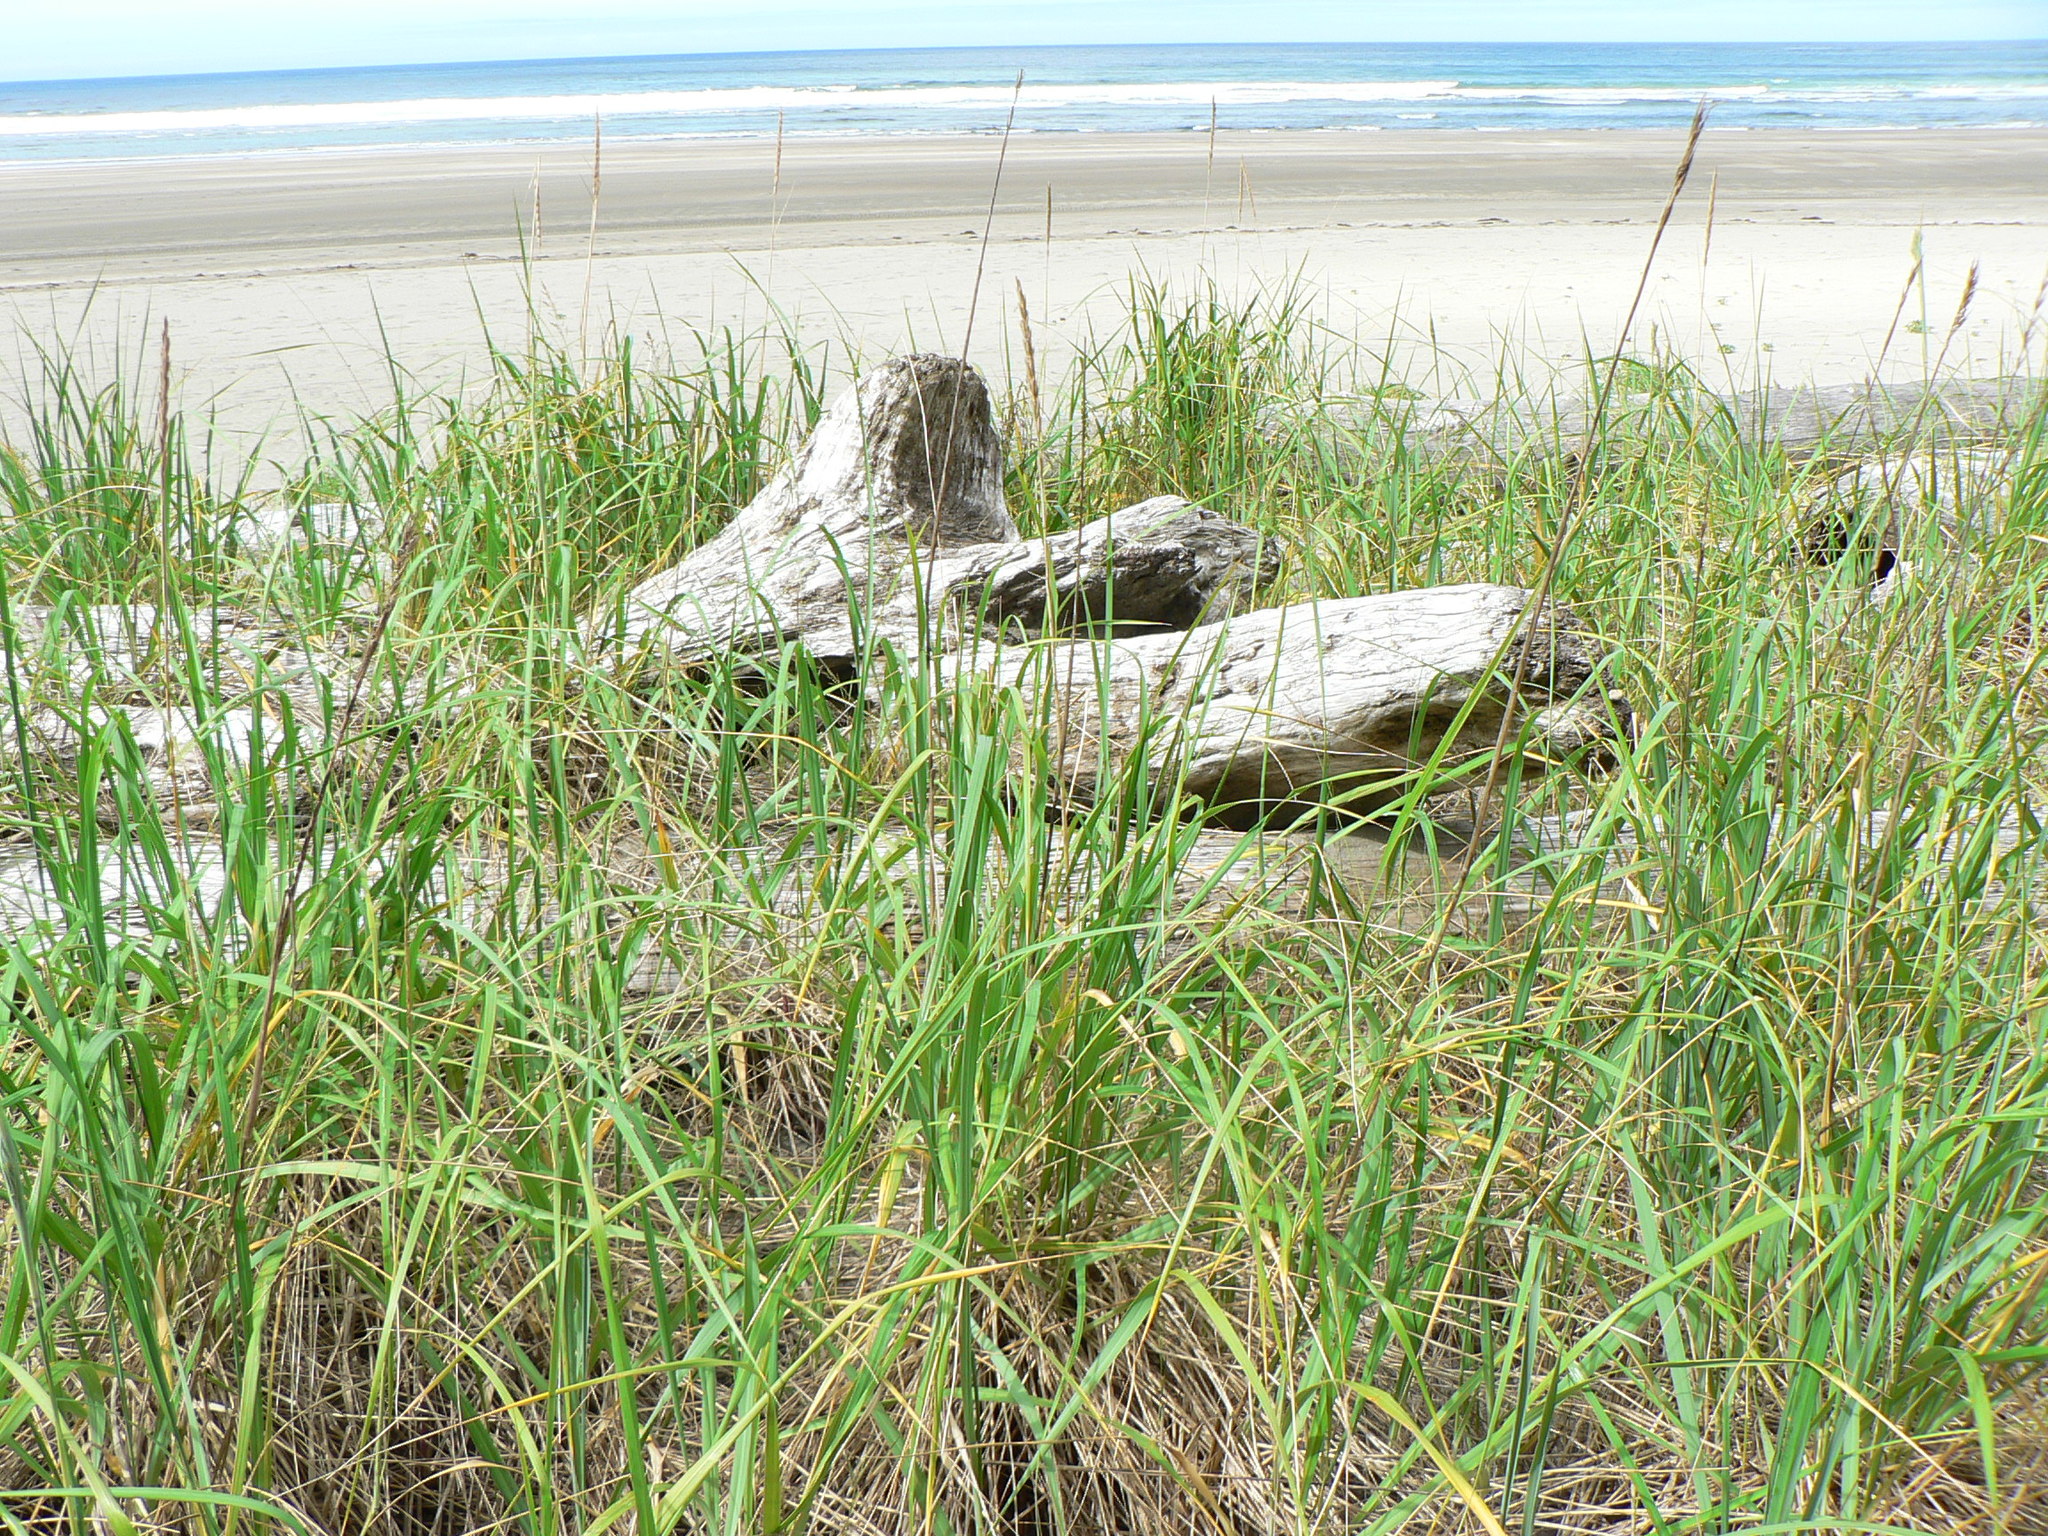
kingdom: Plantae
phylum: Tracheophyta
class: Liliopsida
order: Poales
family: Poaceae
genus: Leymus
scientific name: Leymus mollis
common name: American dune grass
